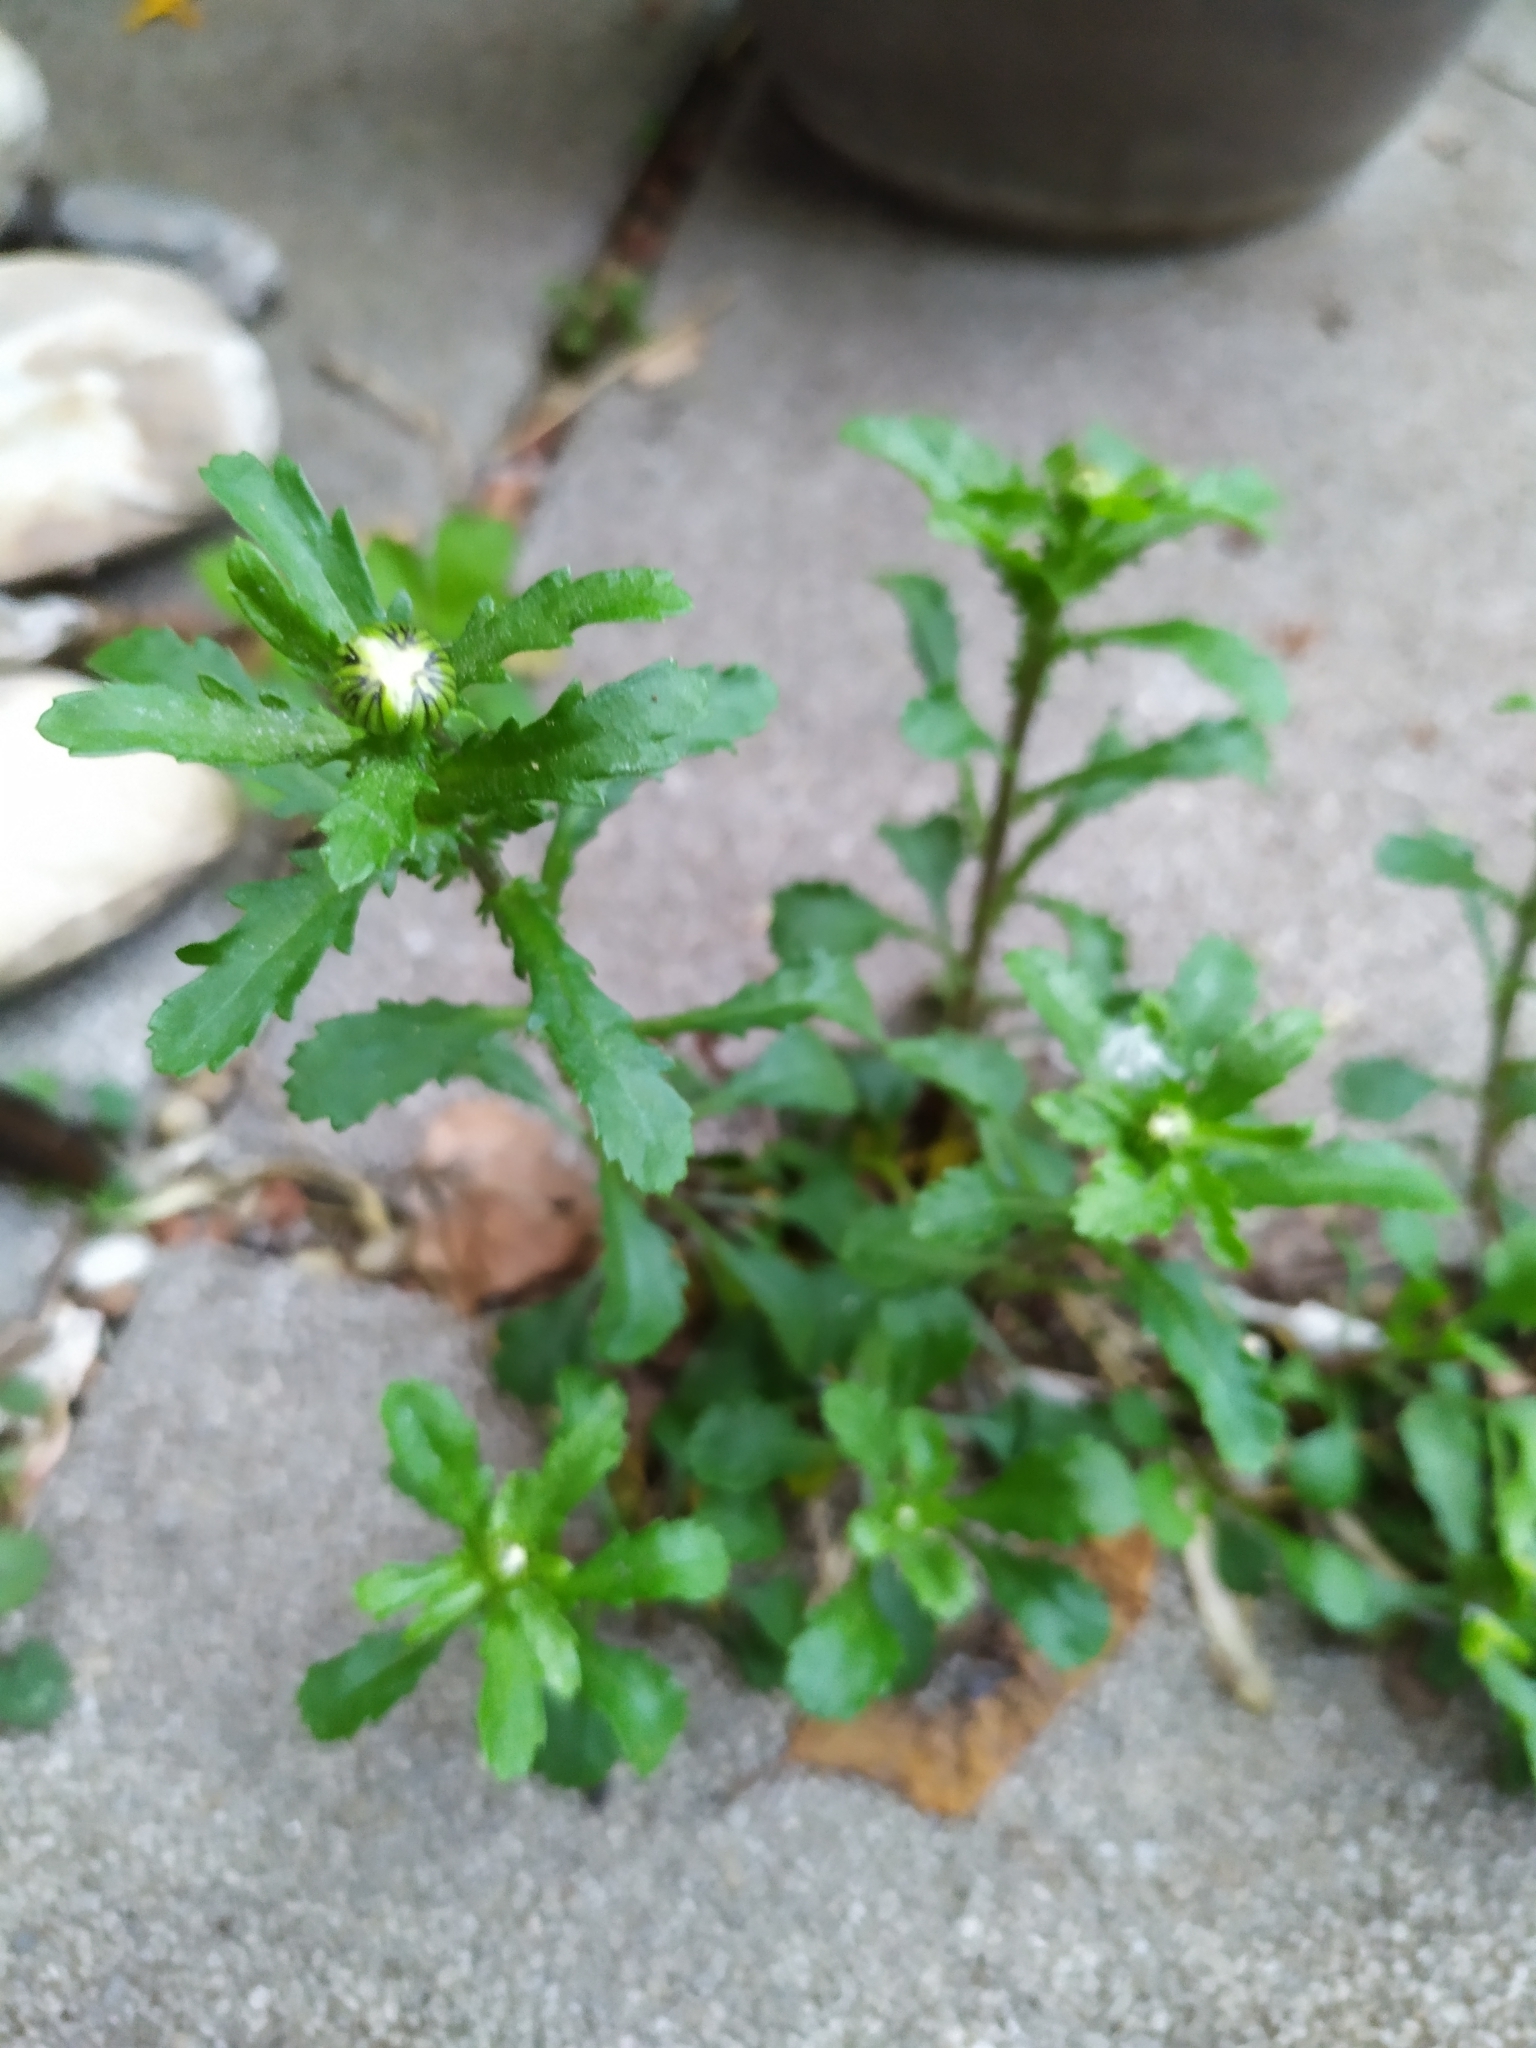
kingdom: Plantae
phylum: Tracheophyta
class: Magnoliopsida
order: Asterales
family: Asteraceae
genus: Leucanthemum
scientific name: Leucanthemum vulgare
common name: Oxeye daisy
